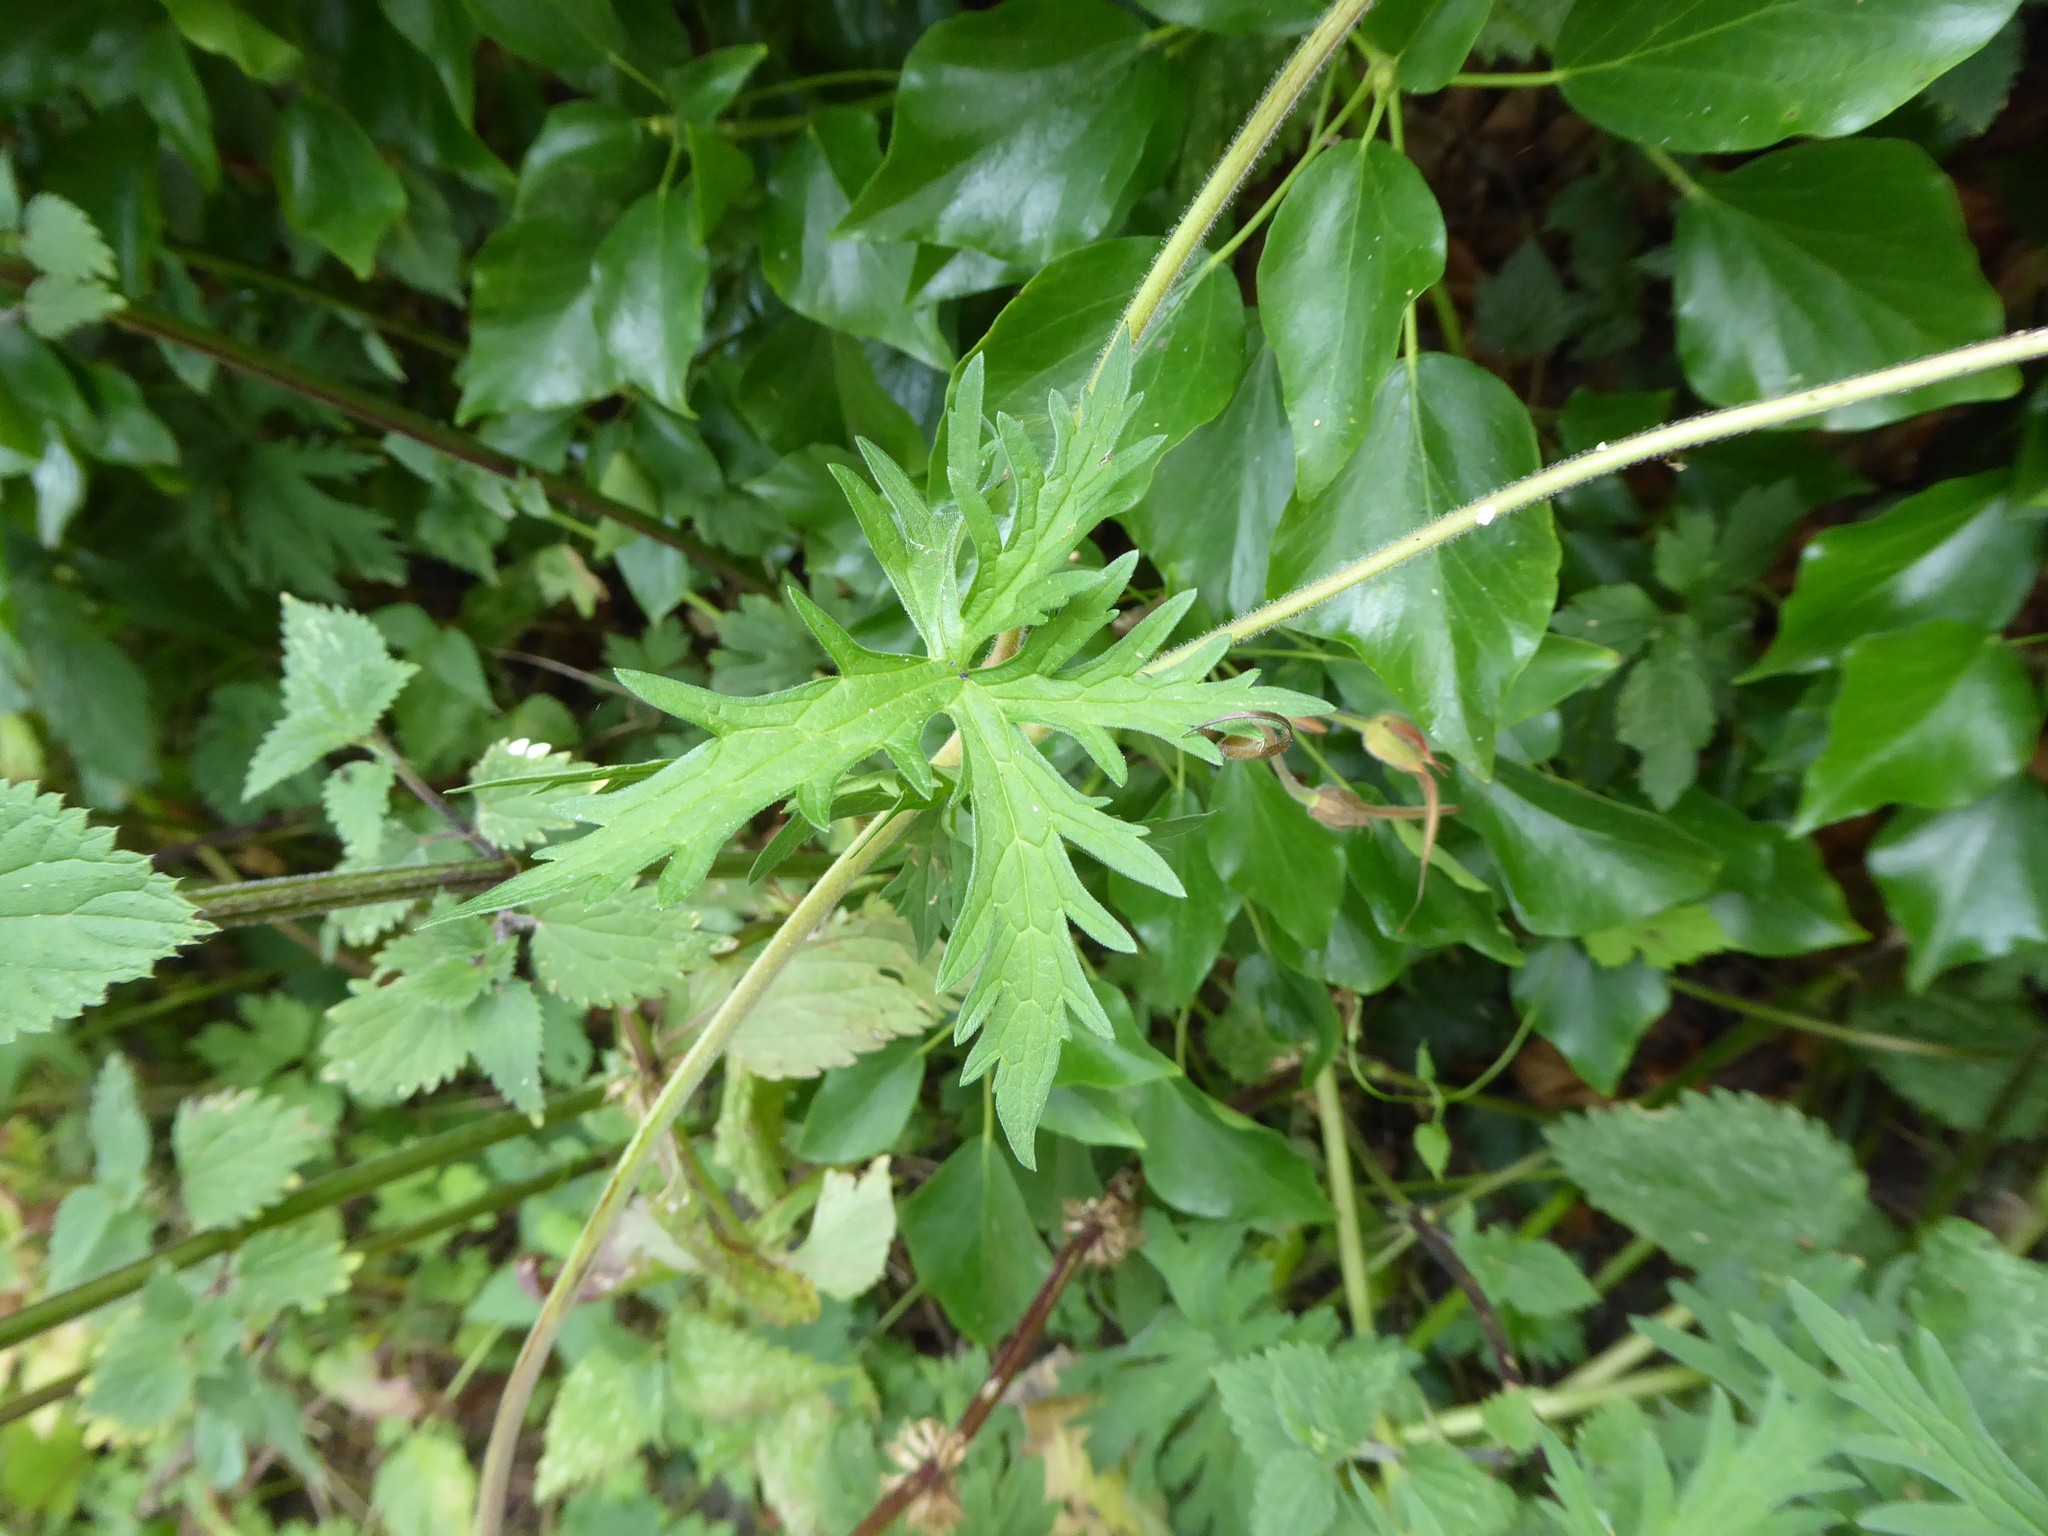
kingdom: Plantae
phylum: Tracheophyta
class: Magnoliopsida
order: Geraniales
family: Geraniaceae
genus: Geranium
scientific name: Geranium pratense
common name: Meadow crane's-bill
